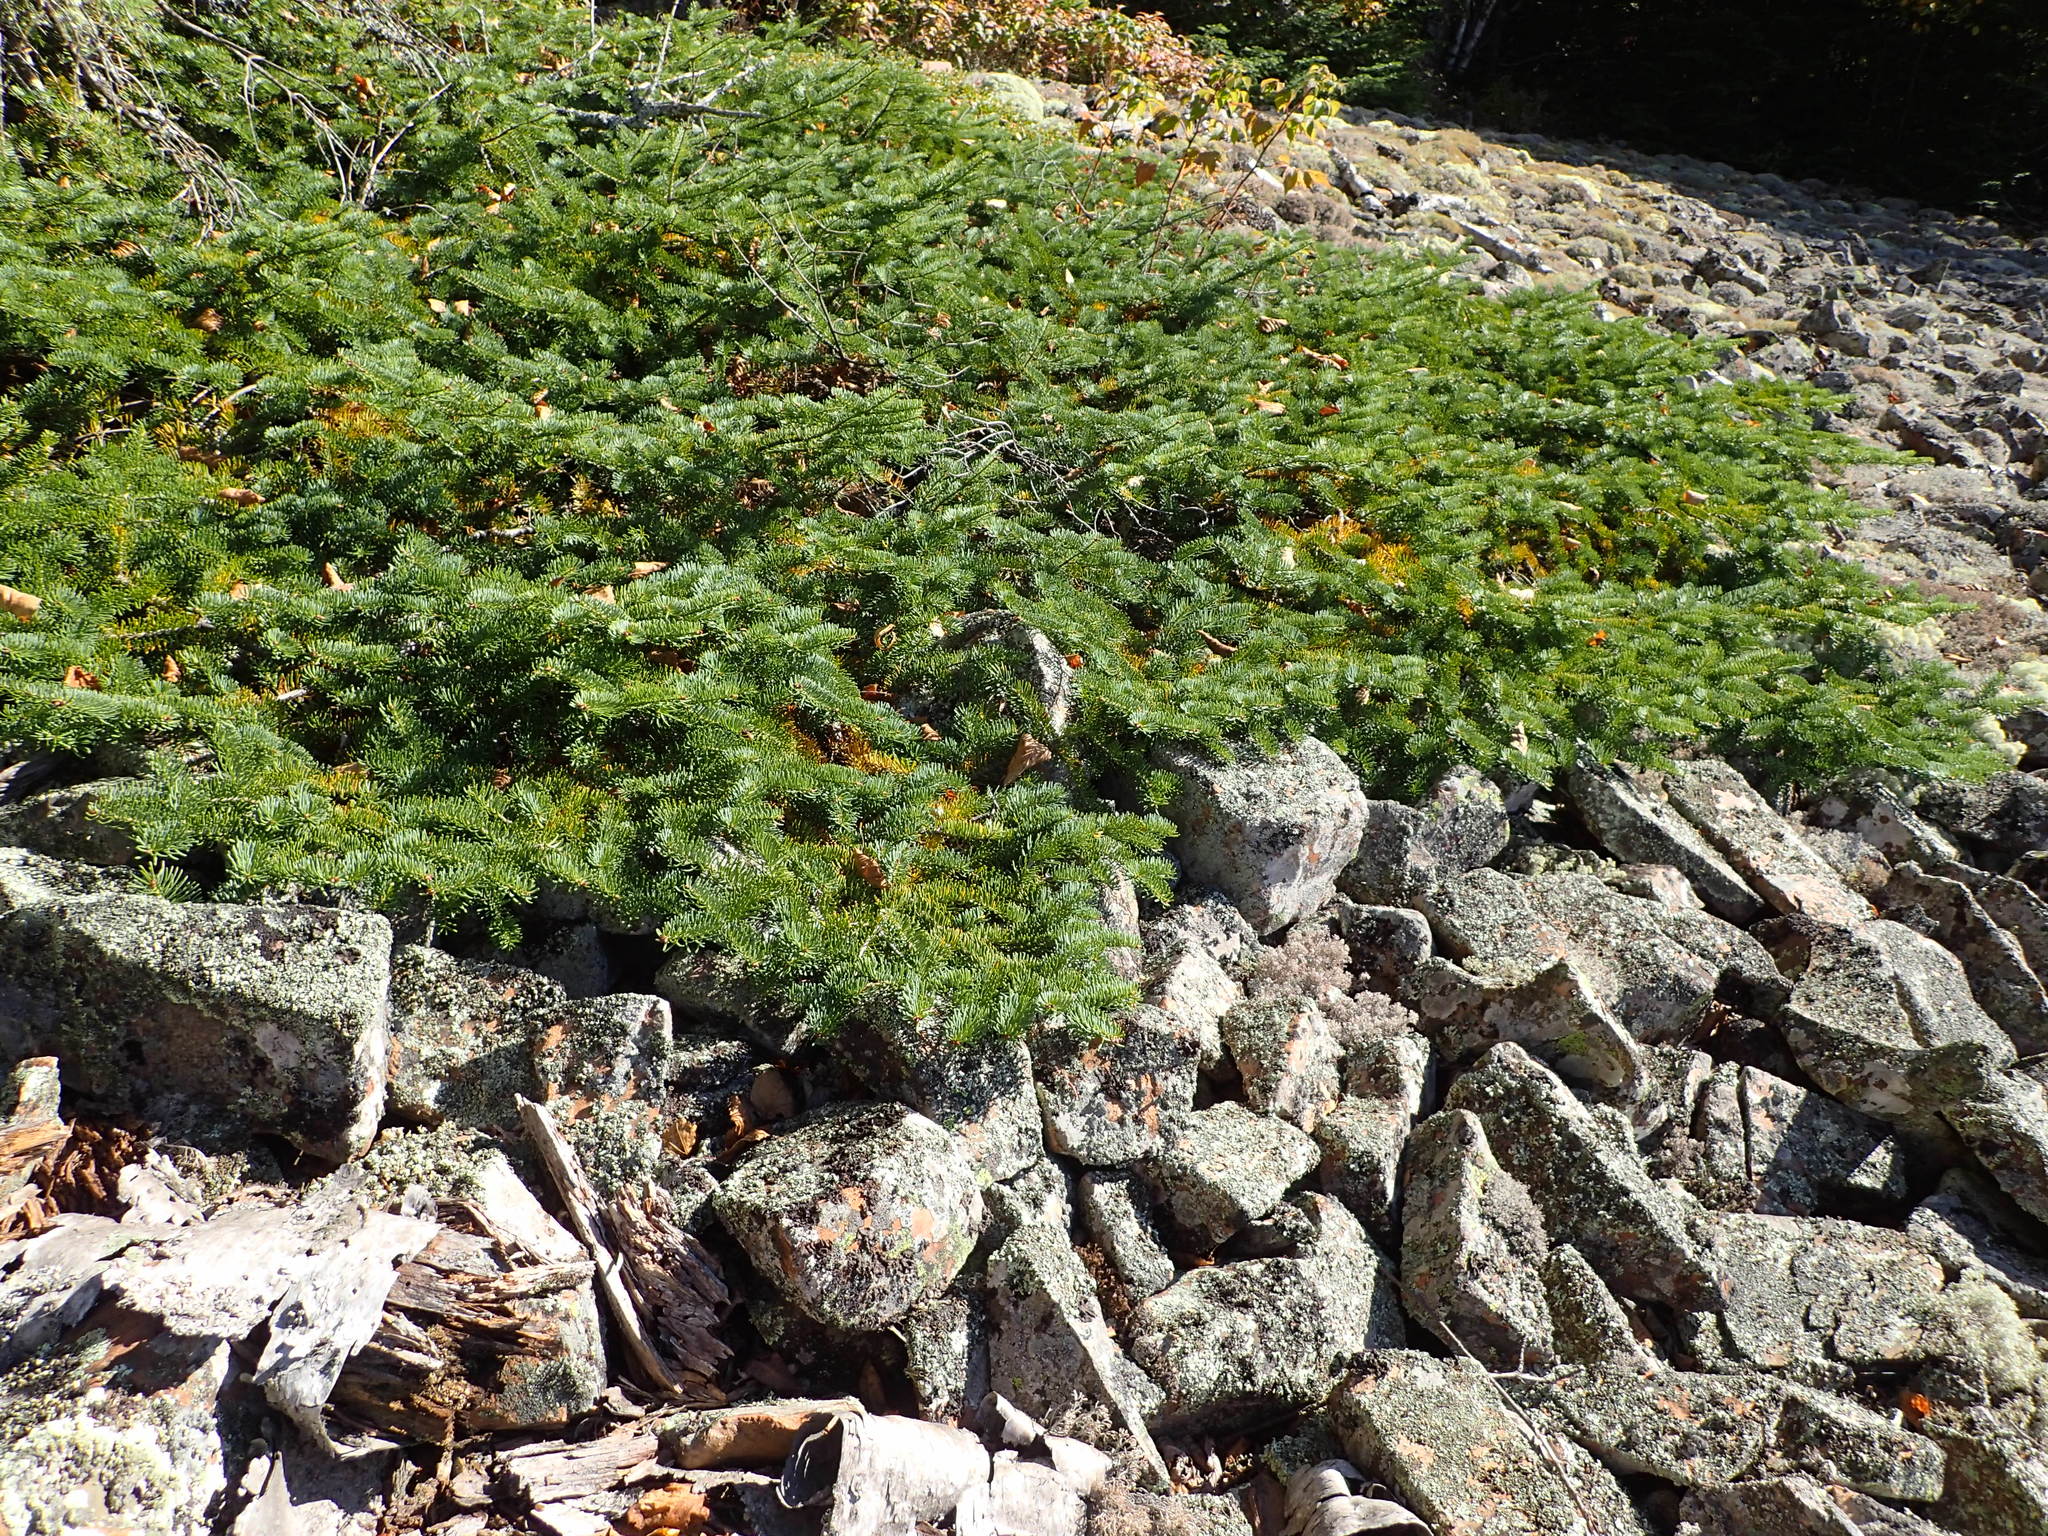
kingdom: Plantae
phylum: Tracheophyta
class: Pinopsida
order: Pinales
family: Pinaceae
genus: Picea
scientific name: Picea glauca
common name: White spruce
